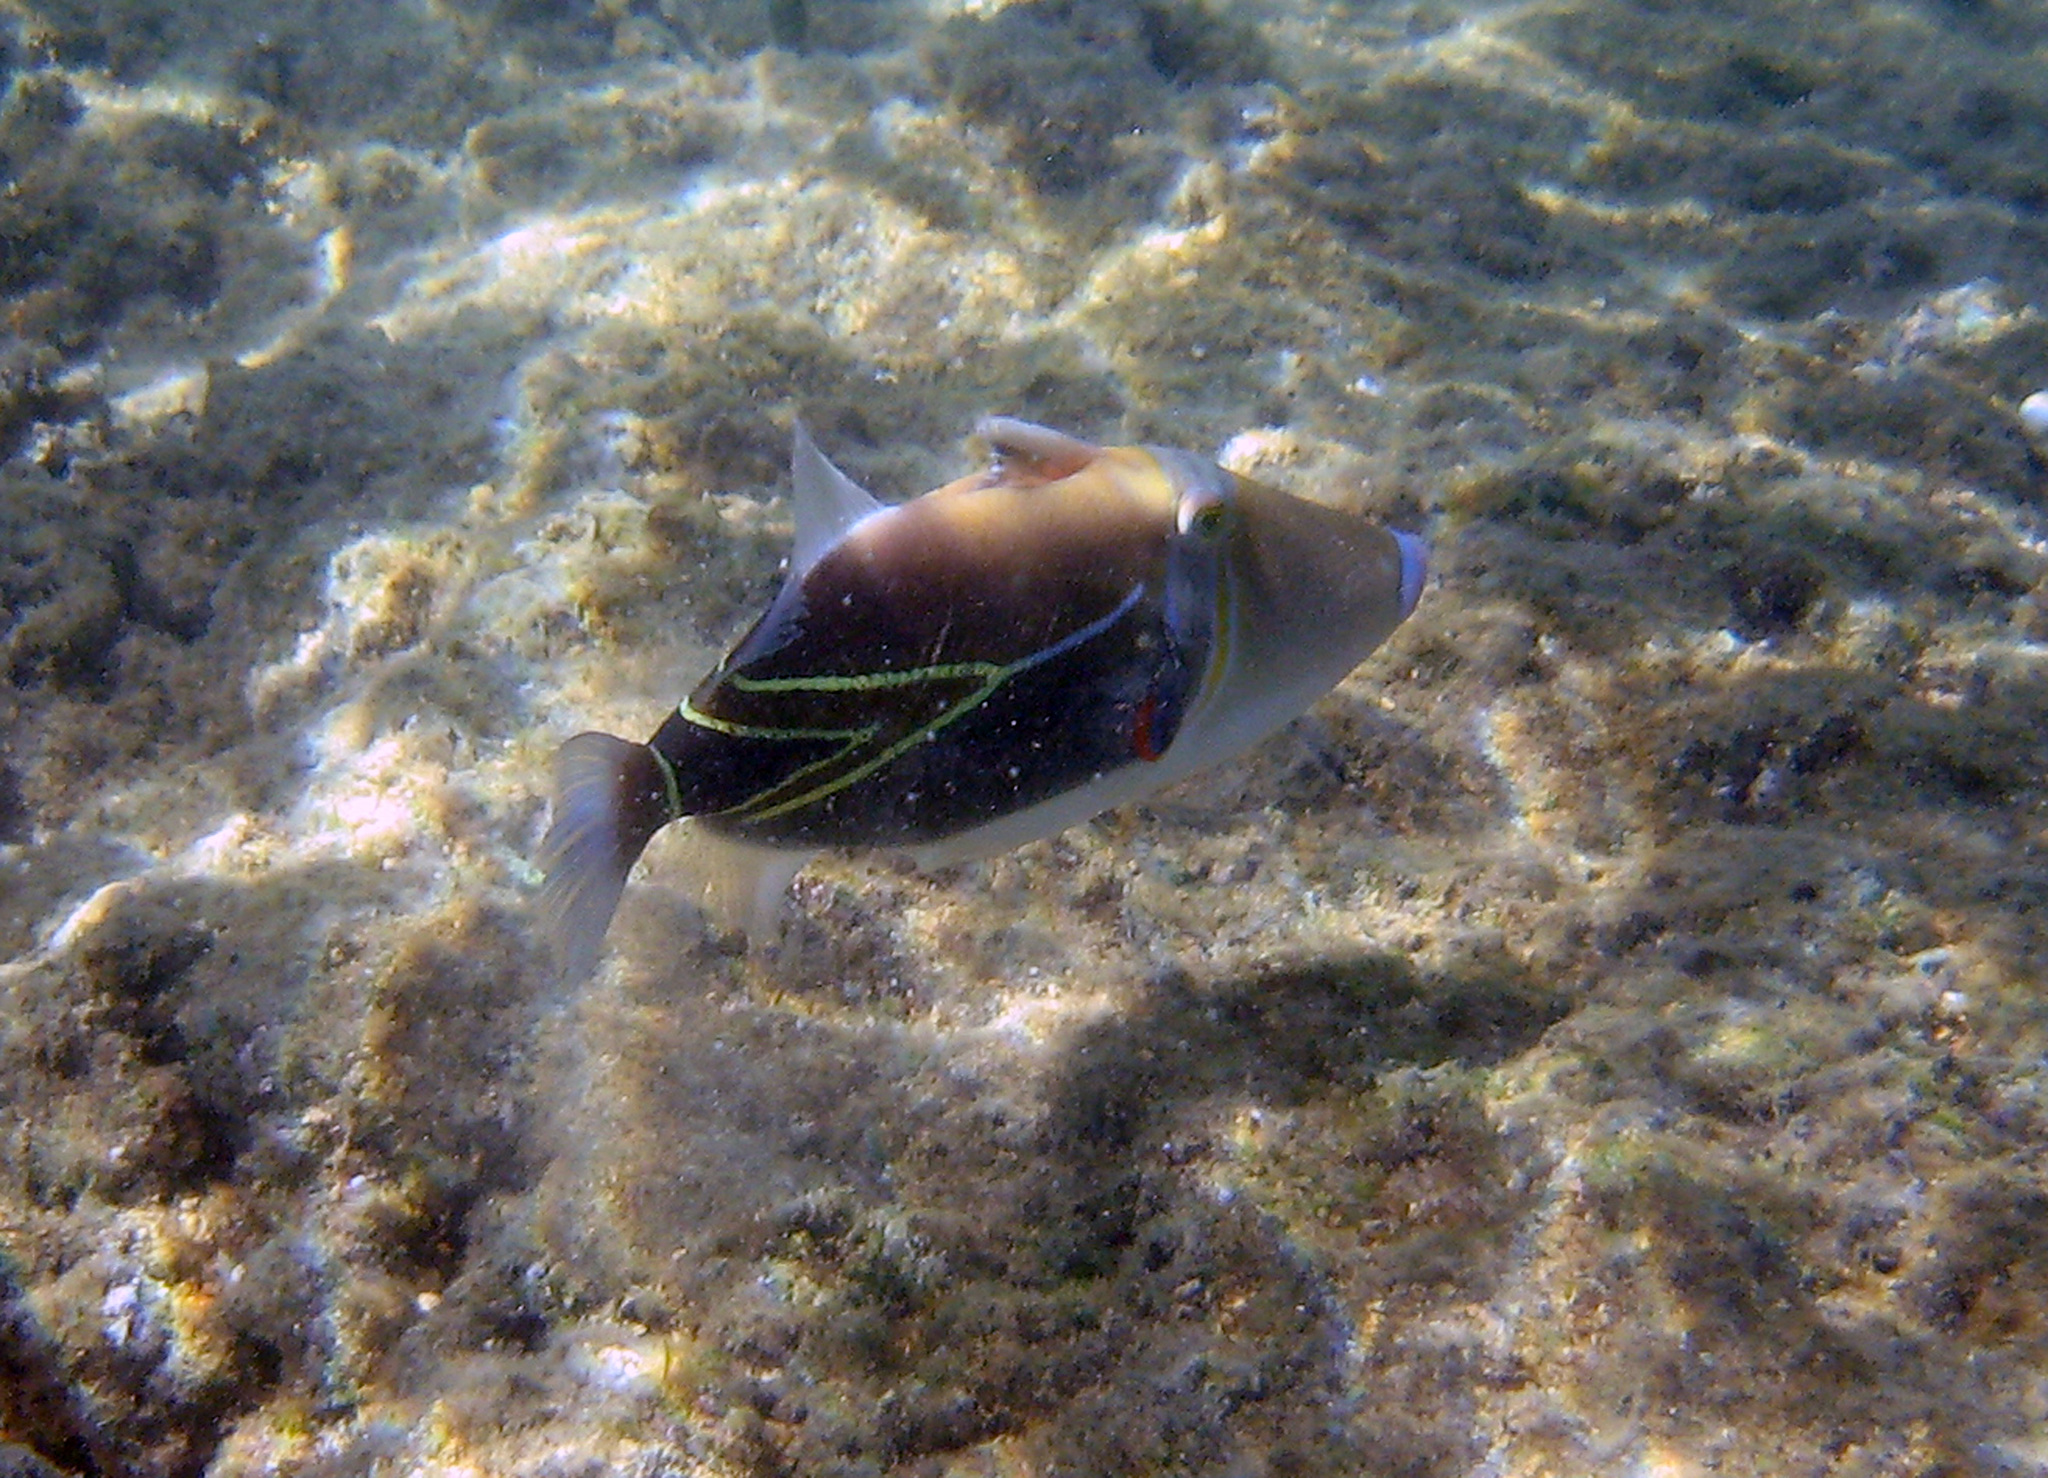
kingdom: Animalia
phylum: Chordata
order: Tetraodontiformes
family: Balistidae
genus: Rhinecanthus
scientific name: Rhinecanthus rectangulus
